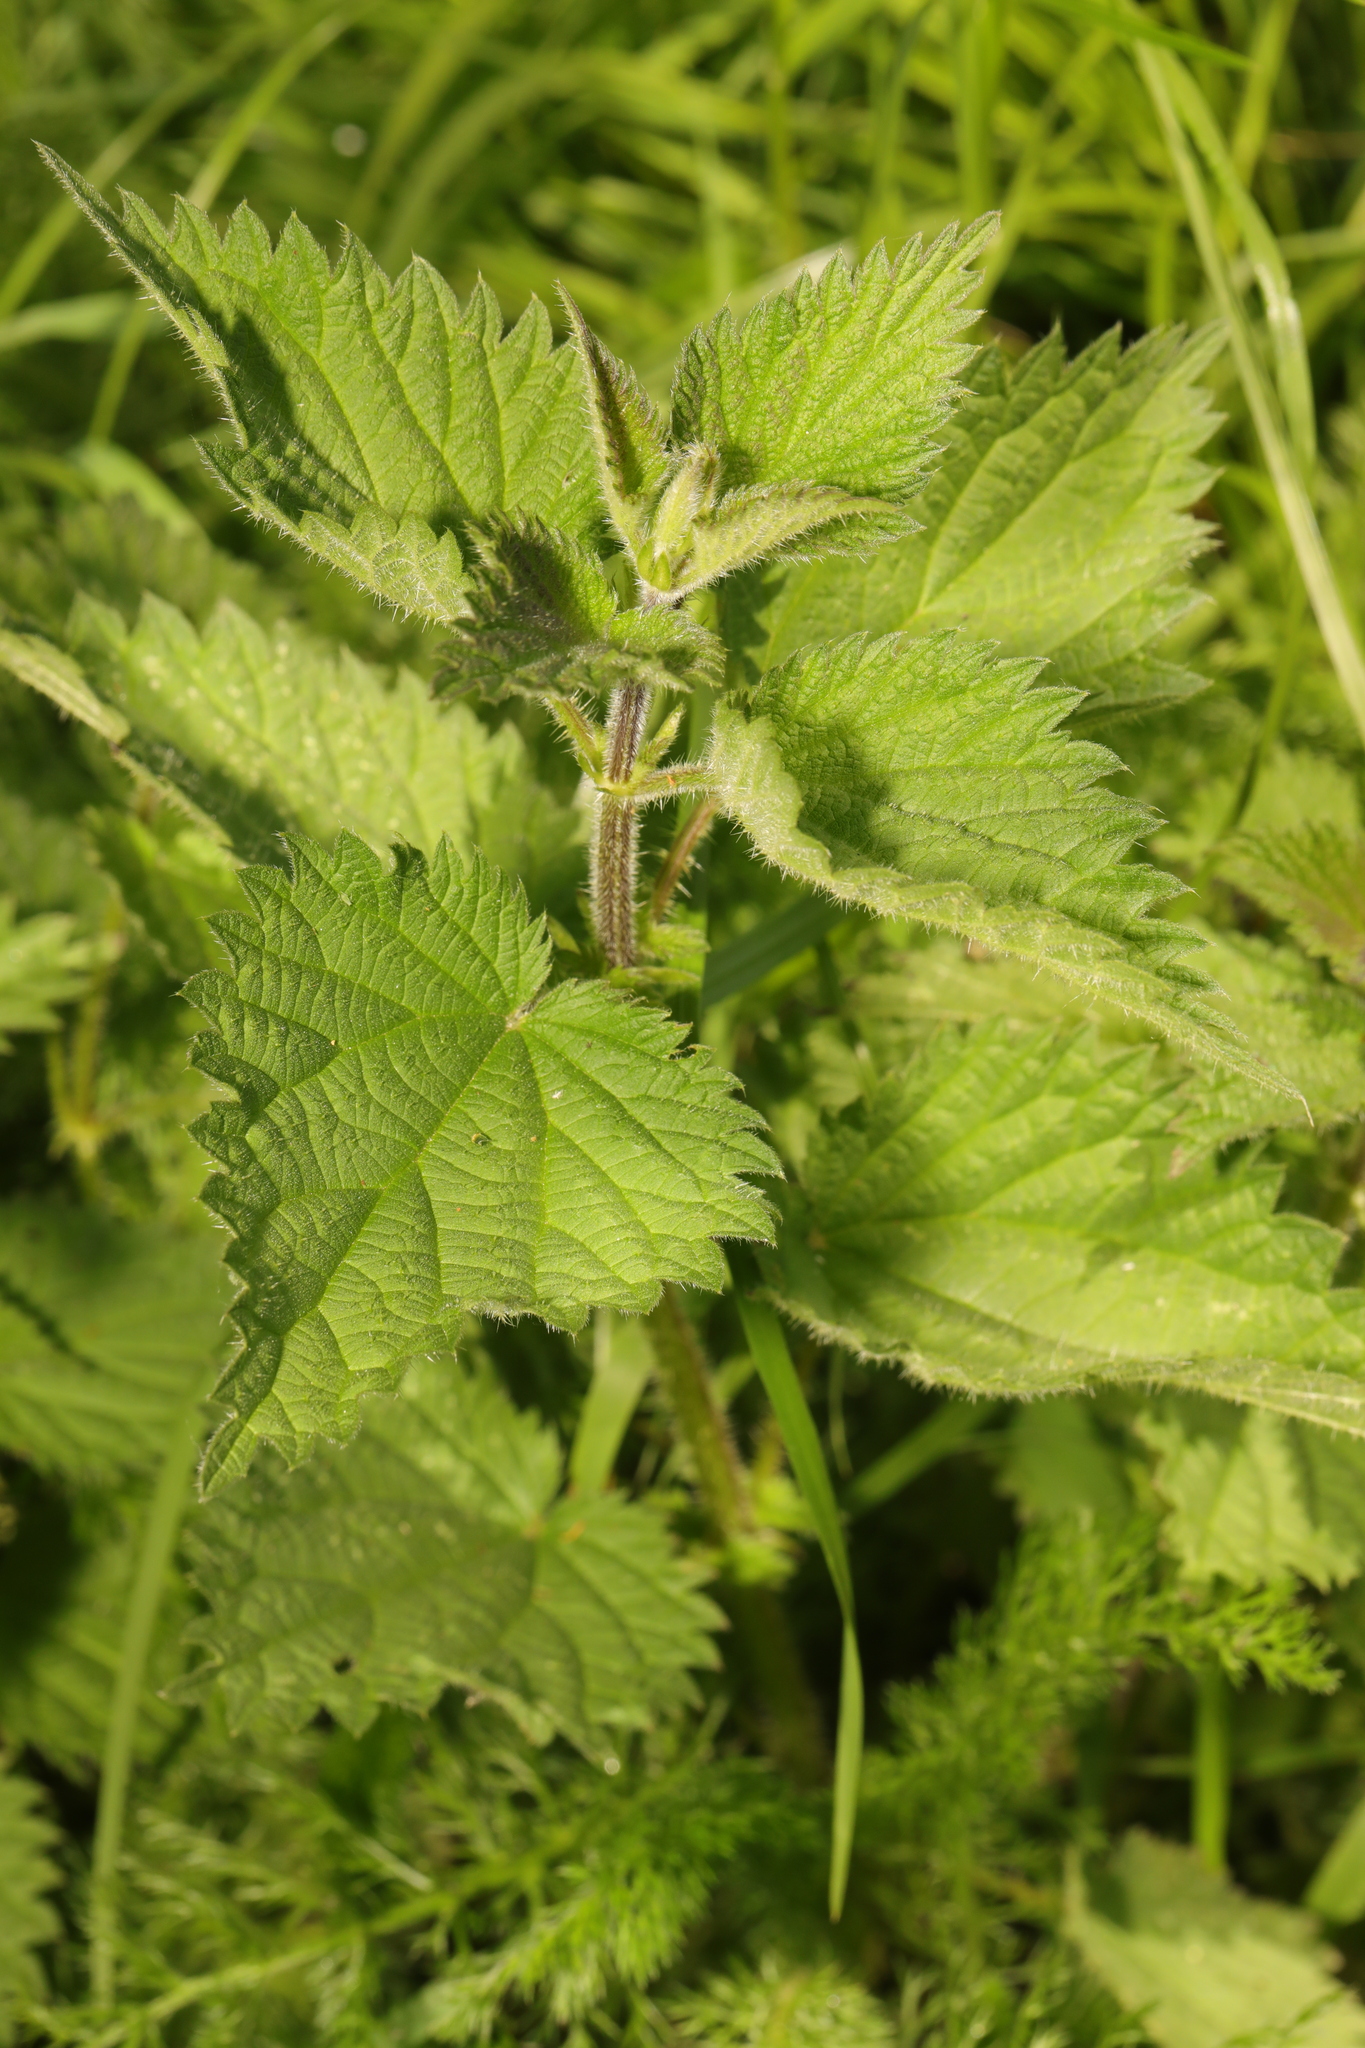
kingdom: Plantae
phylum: Tracheophyta
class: Magnoliopsida
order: Rosales
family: Urticaceae
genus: Urtica
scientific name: Urtica dioica
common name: Common nettle
